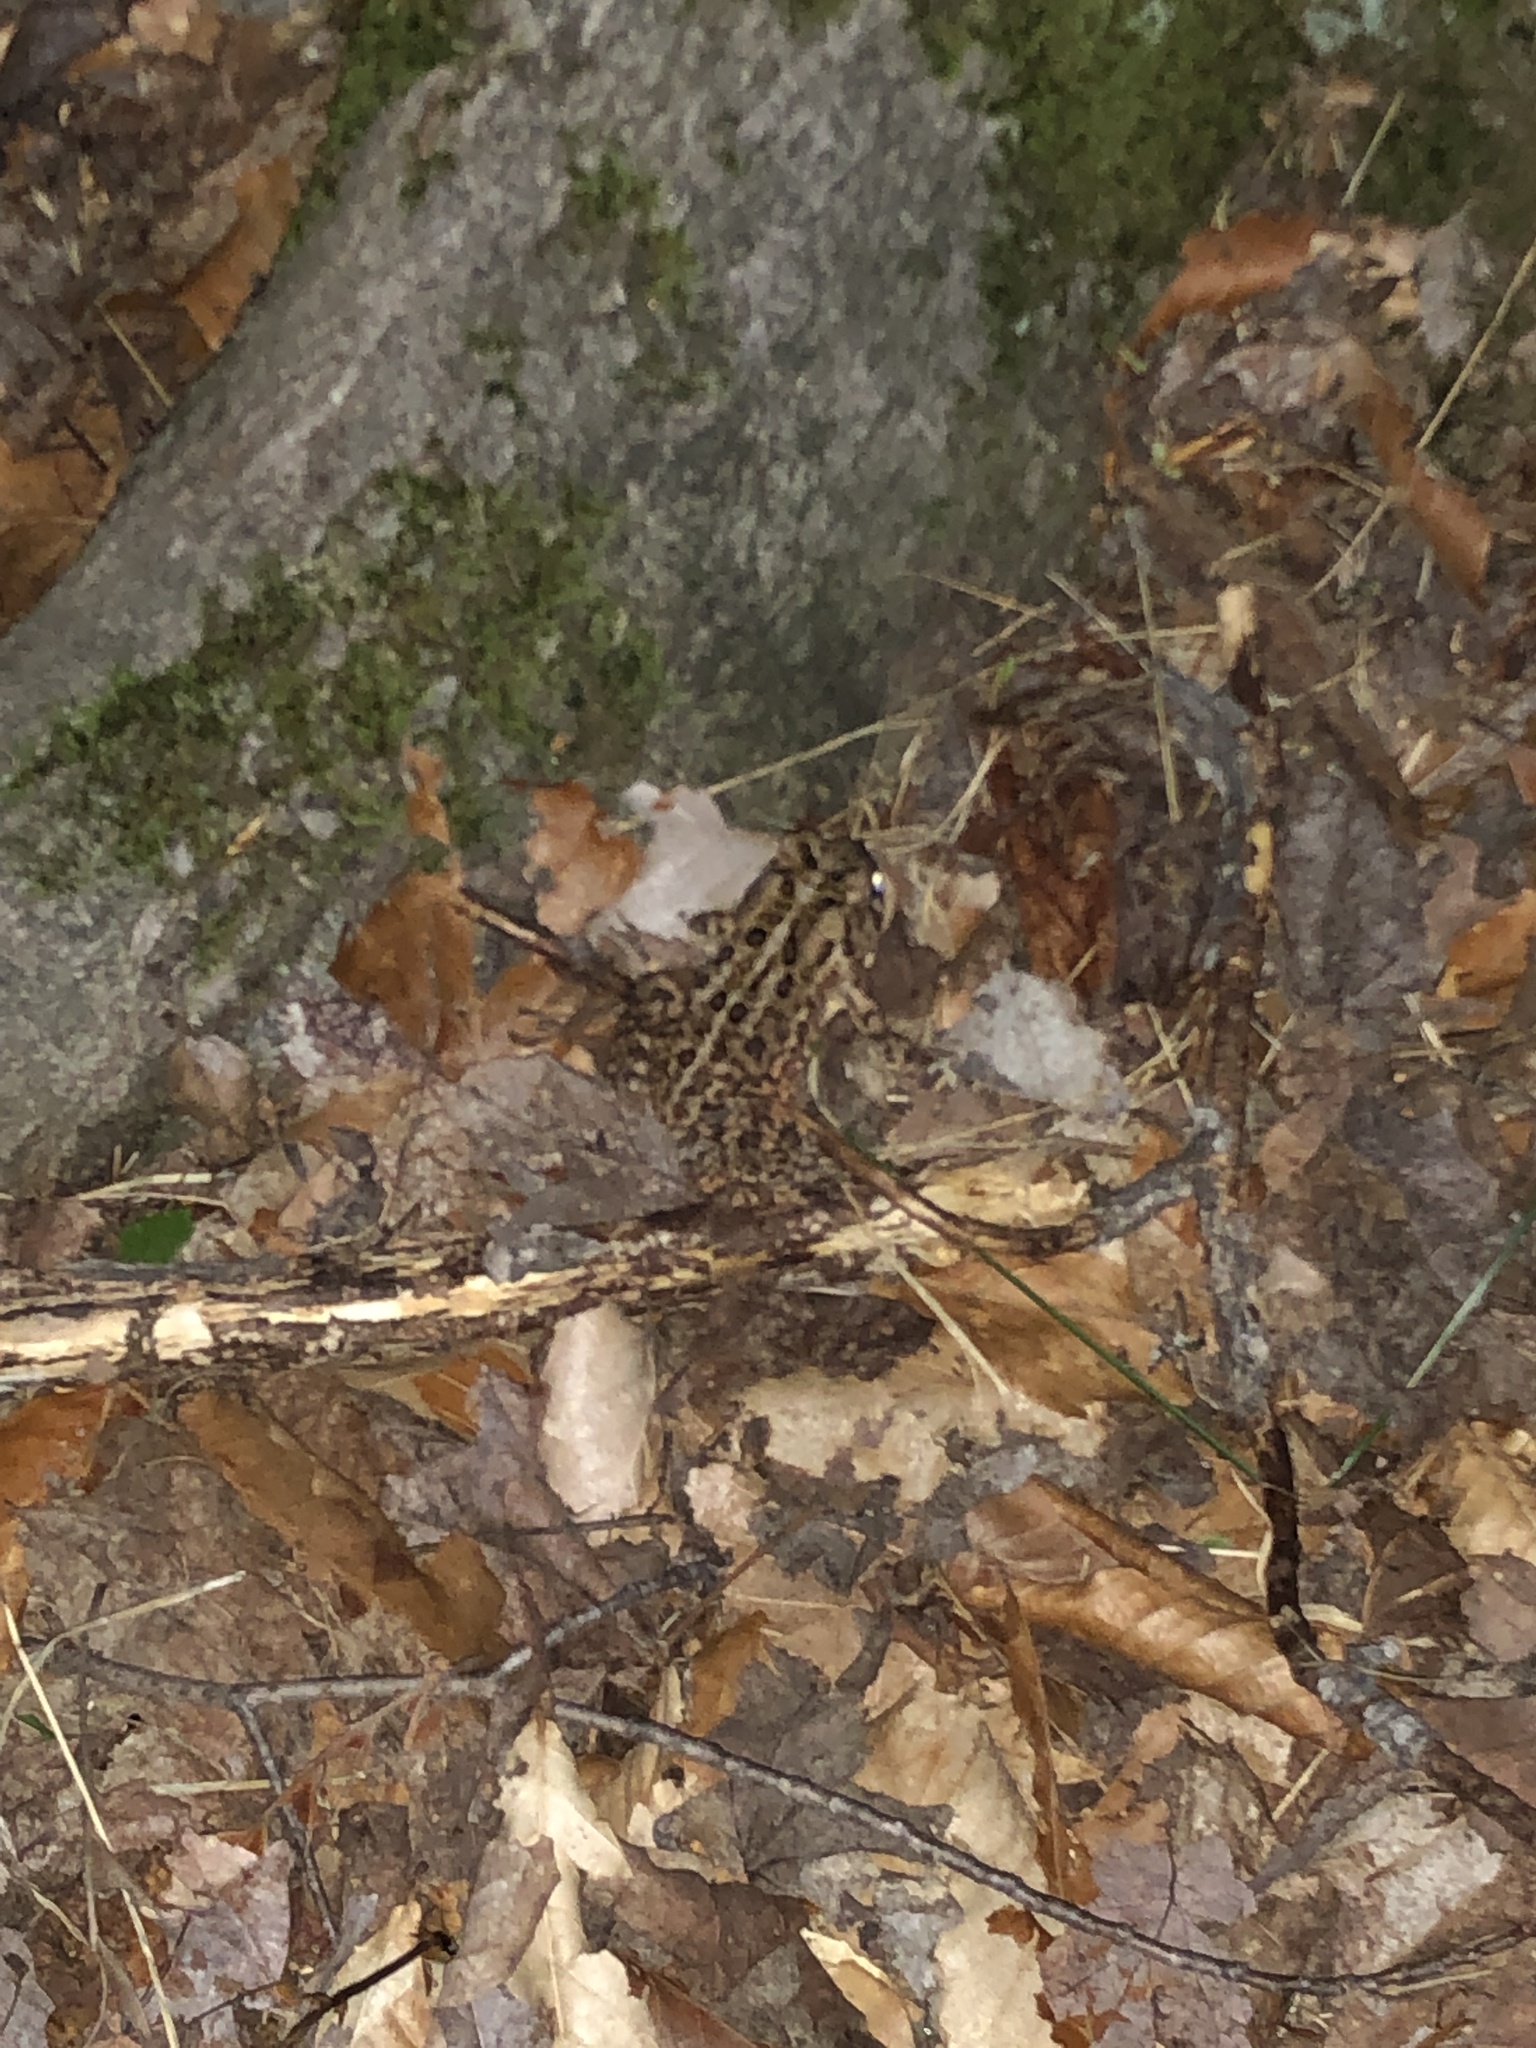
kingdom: Animalia
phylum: Chordata
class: Amphibia
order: Anura
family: Bufonidae
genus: Anaxyrus
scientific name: Anaxyrus americanus
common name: American toad
